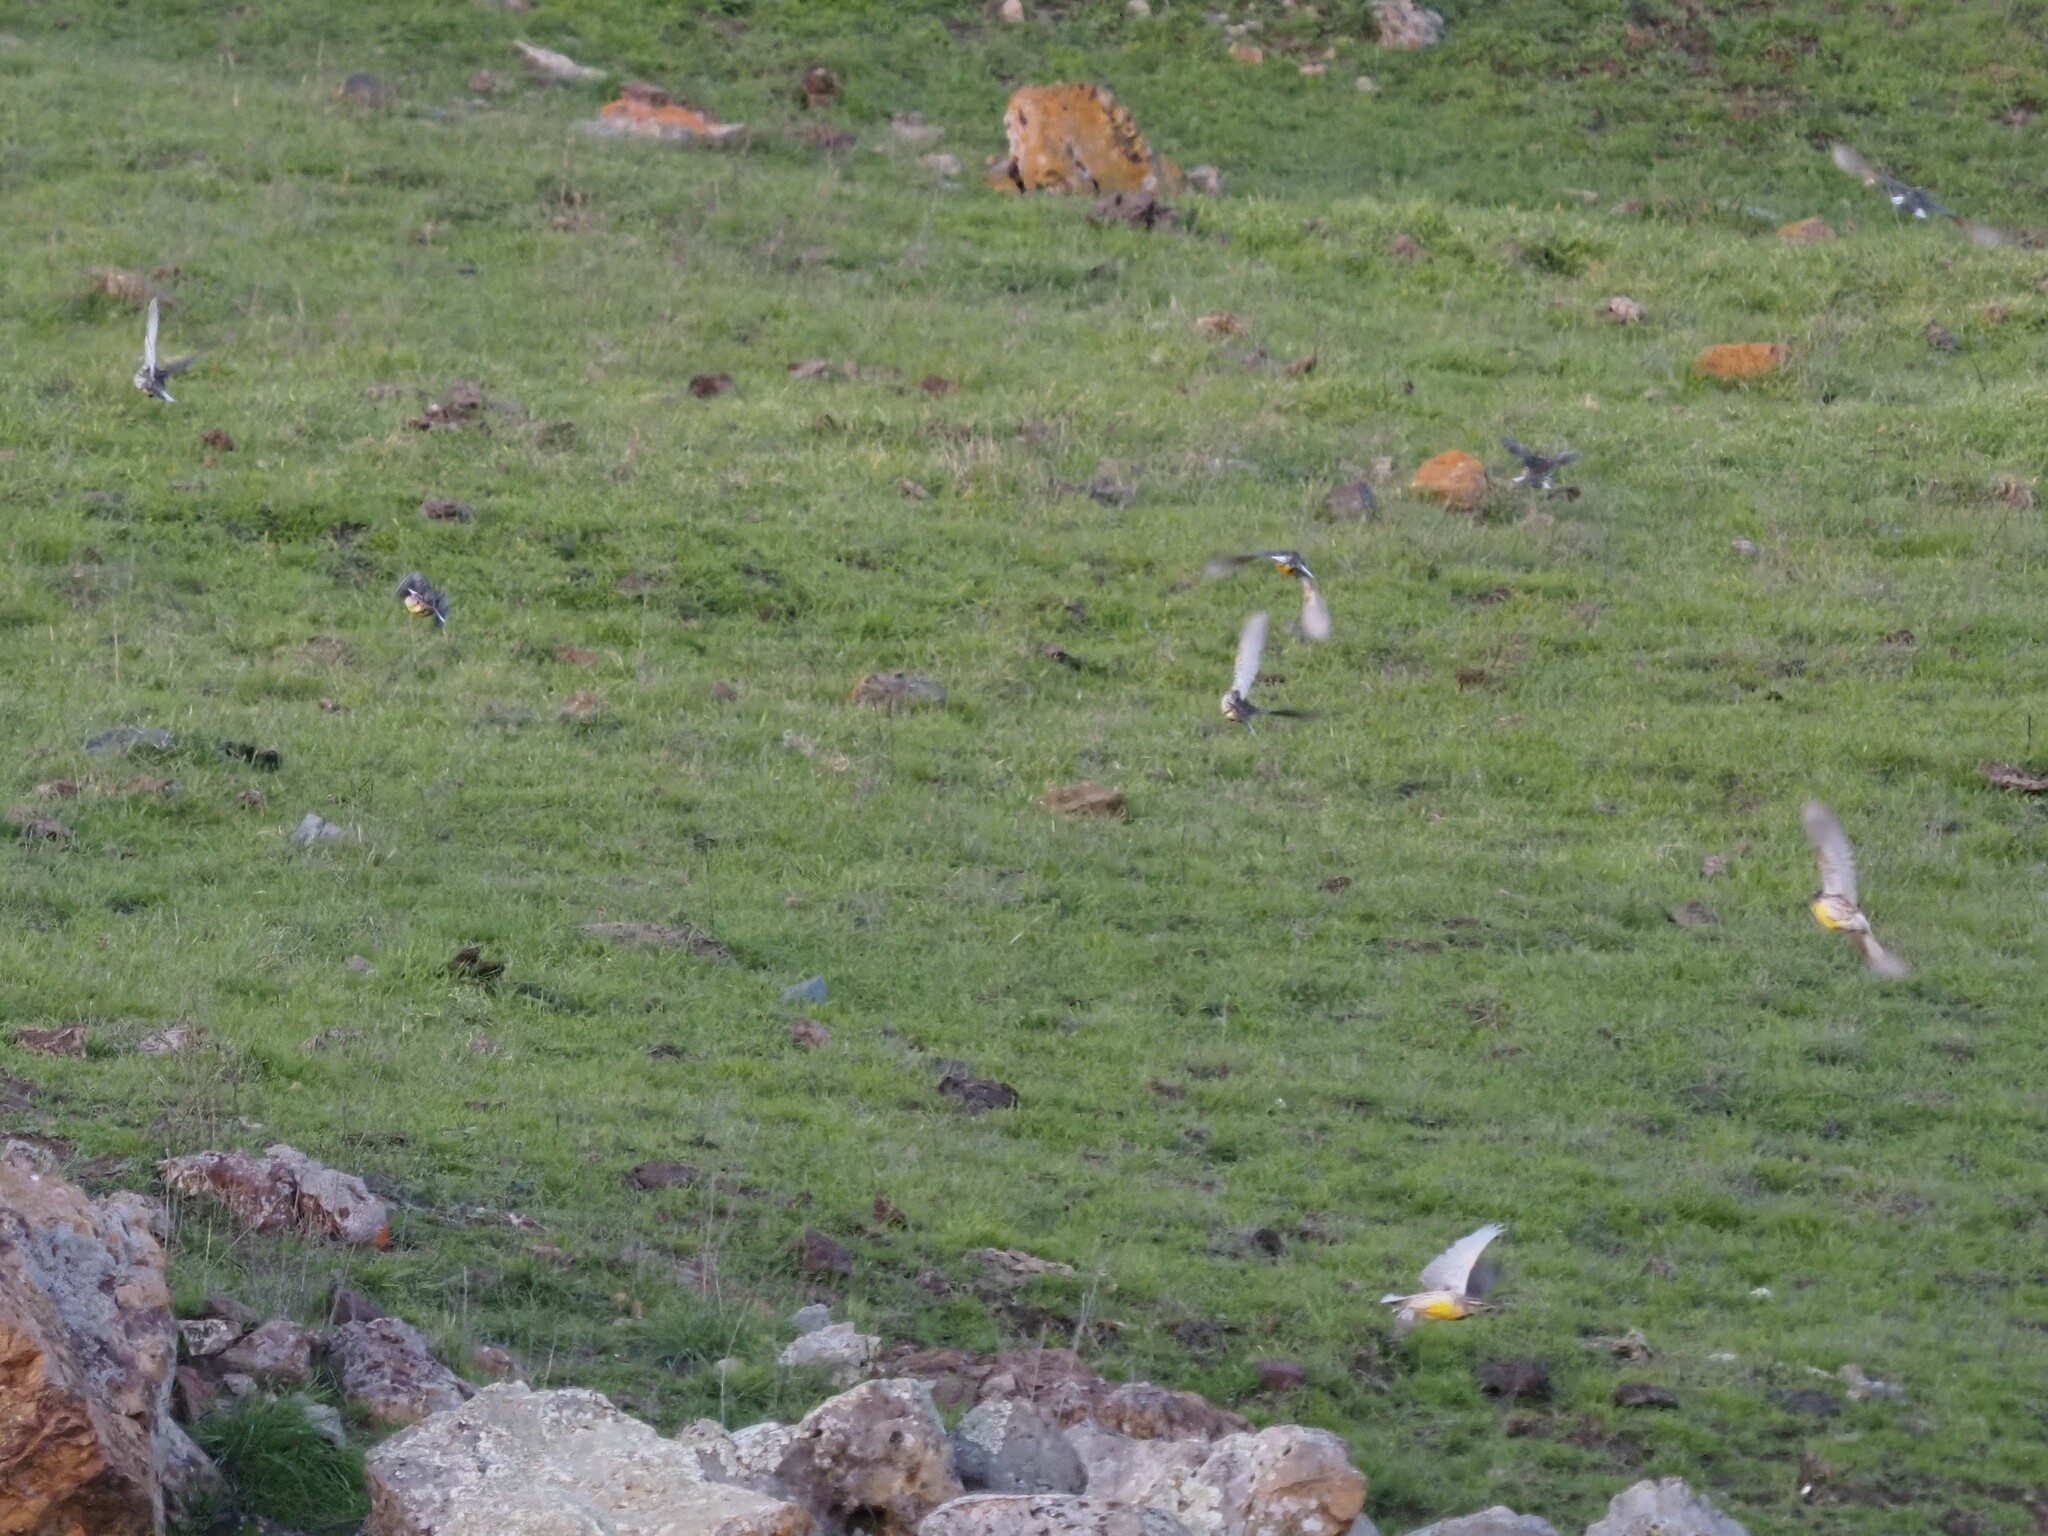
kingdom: Animalia
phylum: Chordata
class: Aves
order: Passeriformes
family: Icteridae
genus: Sturnella
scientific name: Sturnella neglecta
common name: Western meadowlark
